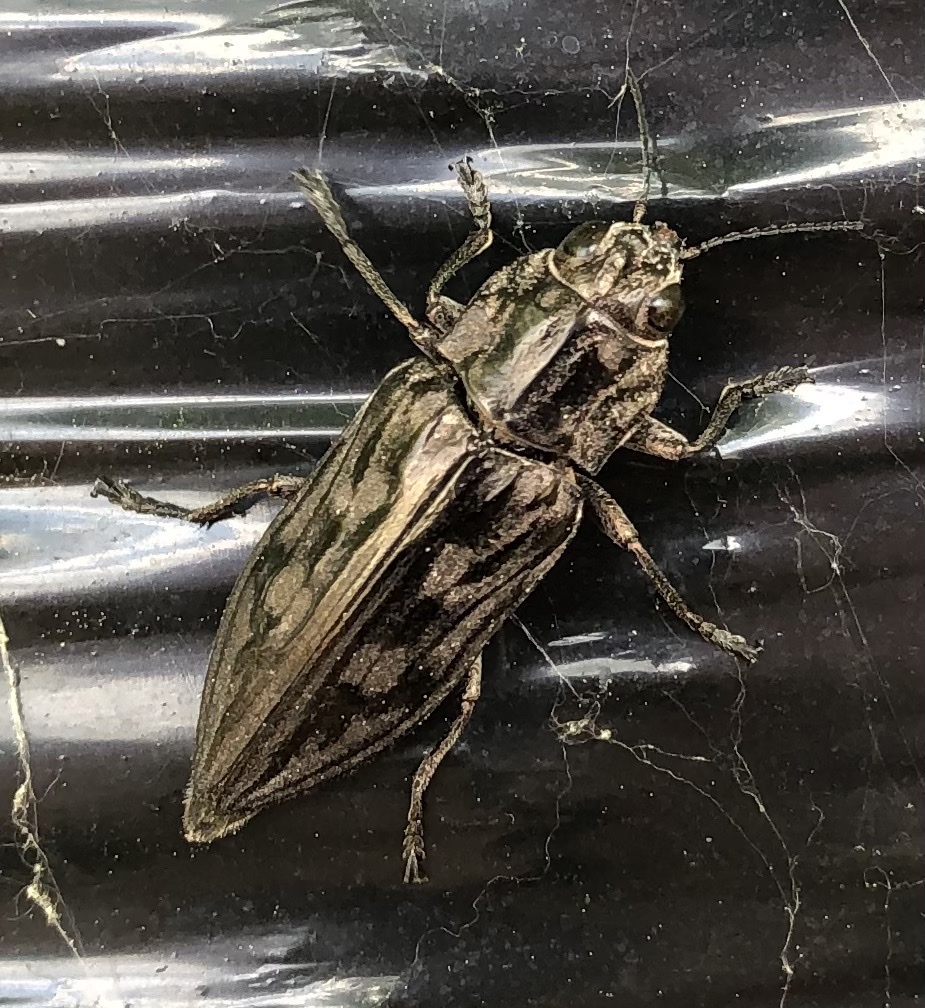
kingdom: Animalia
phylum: Arthropoda
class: Insecta
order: Coleoptera
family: Buprestidae
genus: Chalcophora
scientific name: Chalcophora virginiensis
